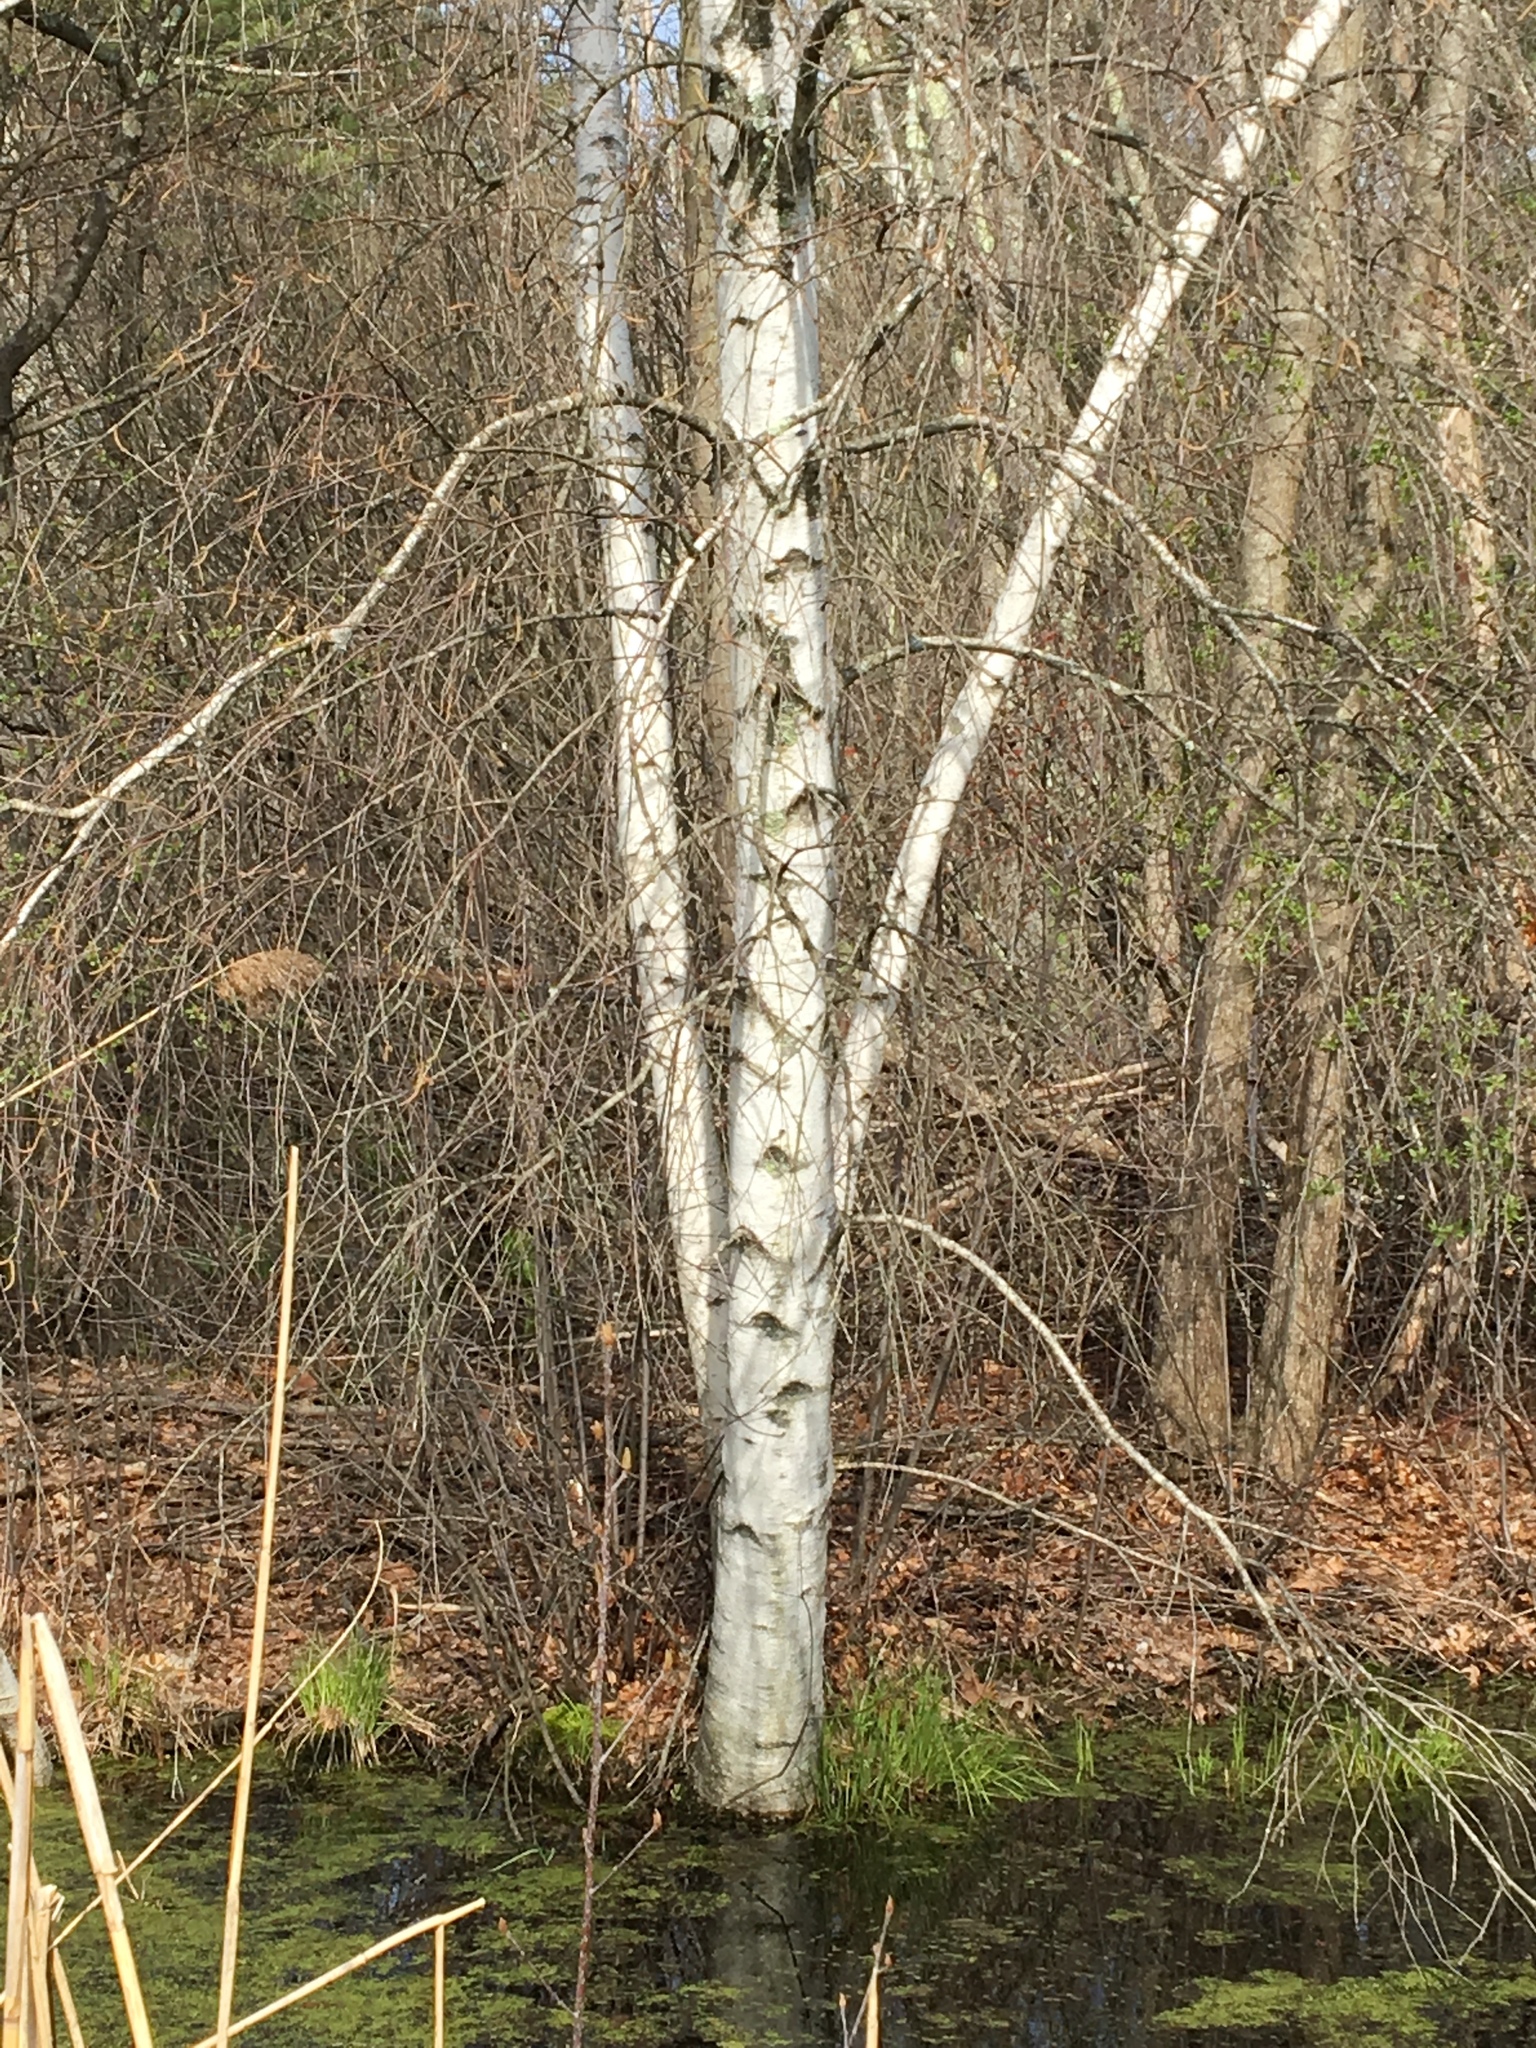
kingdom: Plantae
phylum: Tracheophyta
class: Magnoliopsida
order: Fagales
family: Betulaceae
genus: Betula
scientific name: Betula papyrifera
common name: Paper birch
